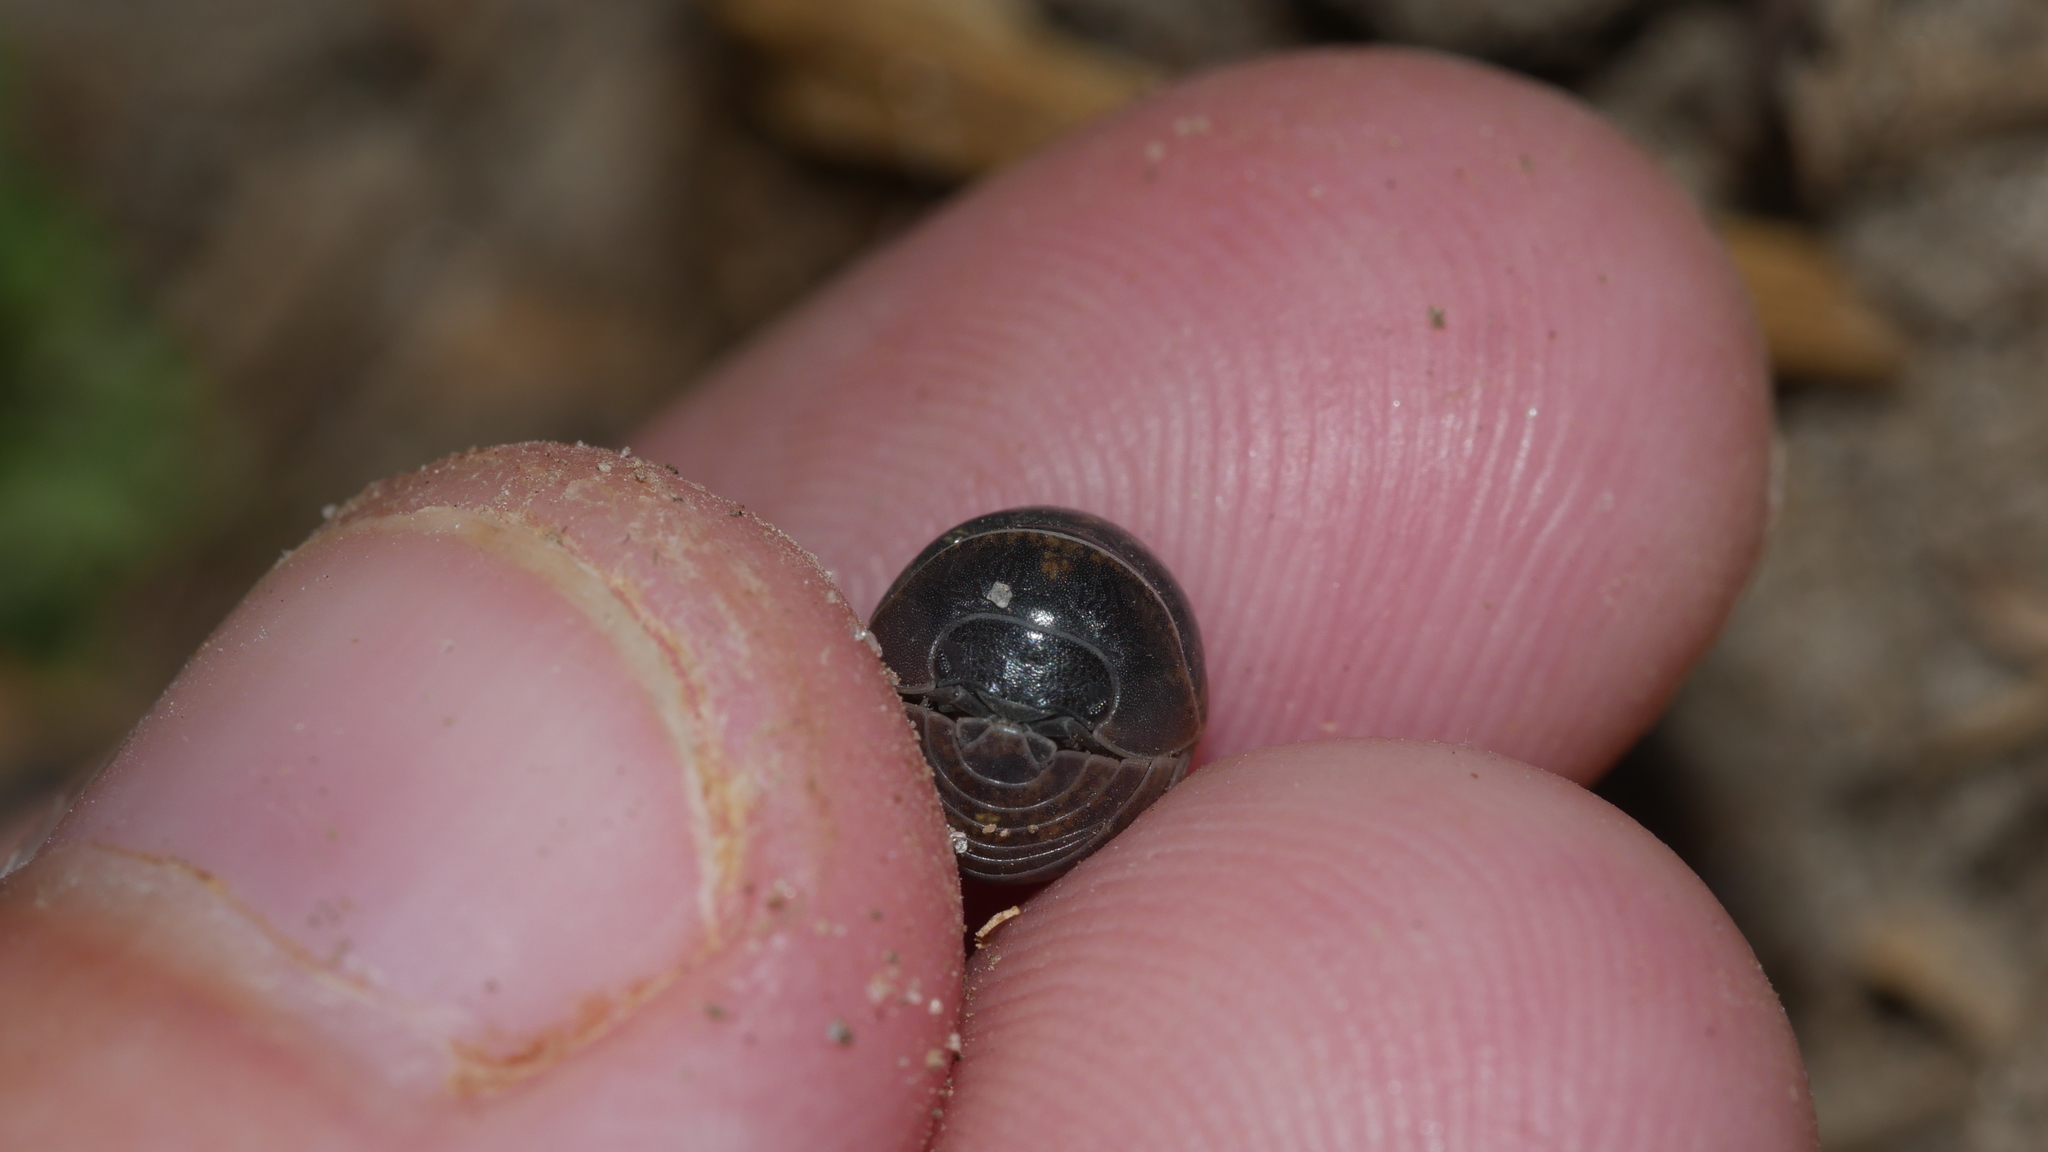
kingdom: Animalia
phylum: Arthropoda
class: Malacostraca
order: Isopoda
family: Armadillidiidae
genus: Armadillidium
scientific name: Armadillidium vulgare
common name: Common pill woodlouse
